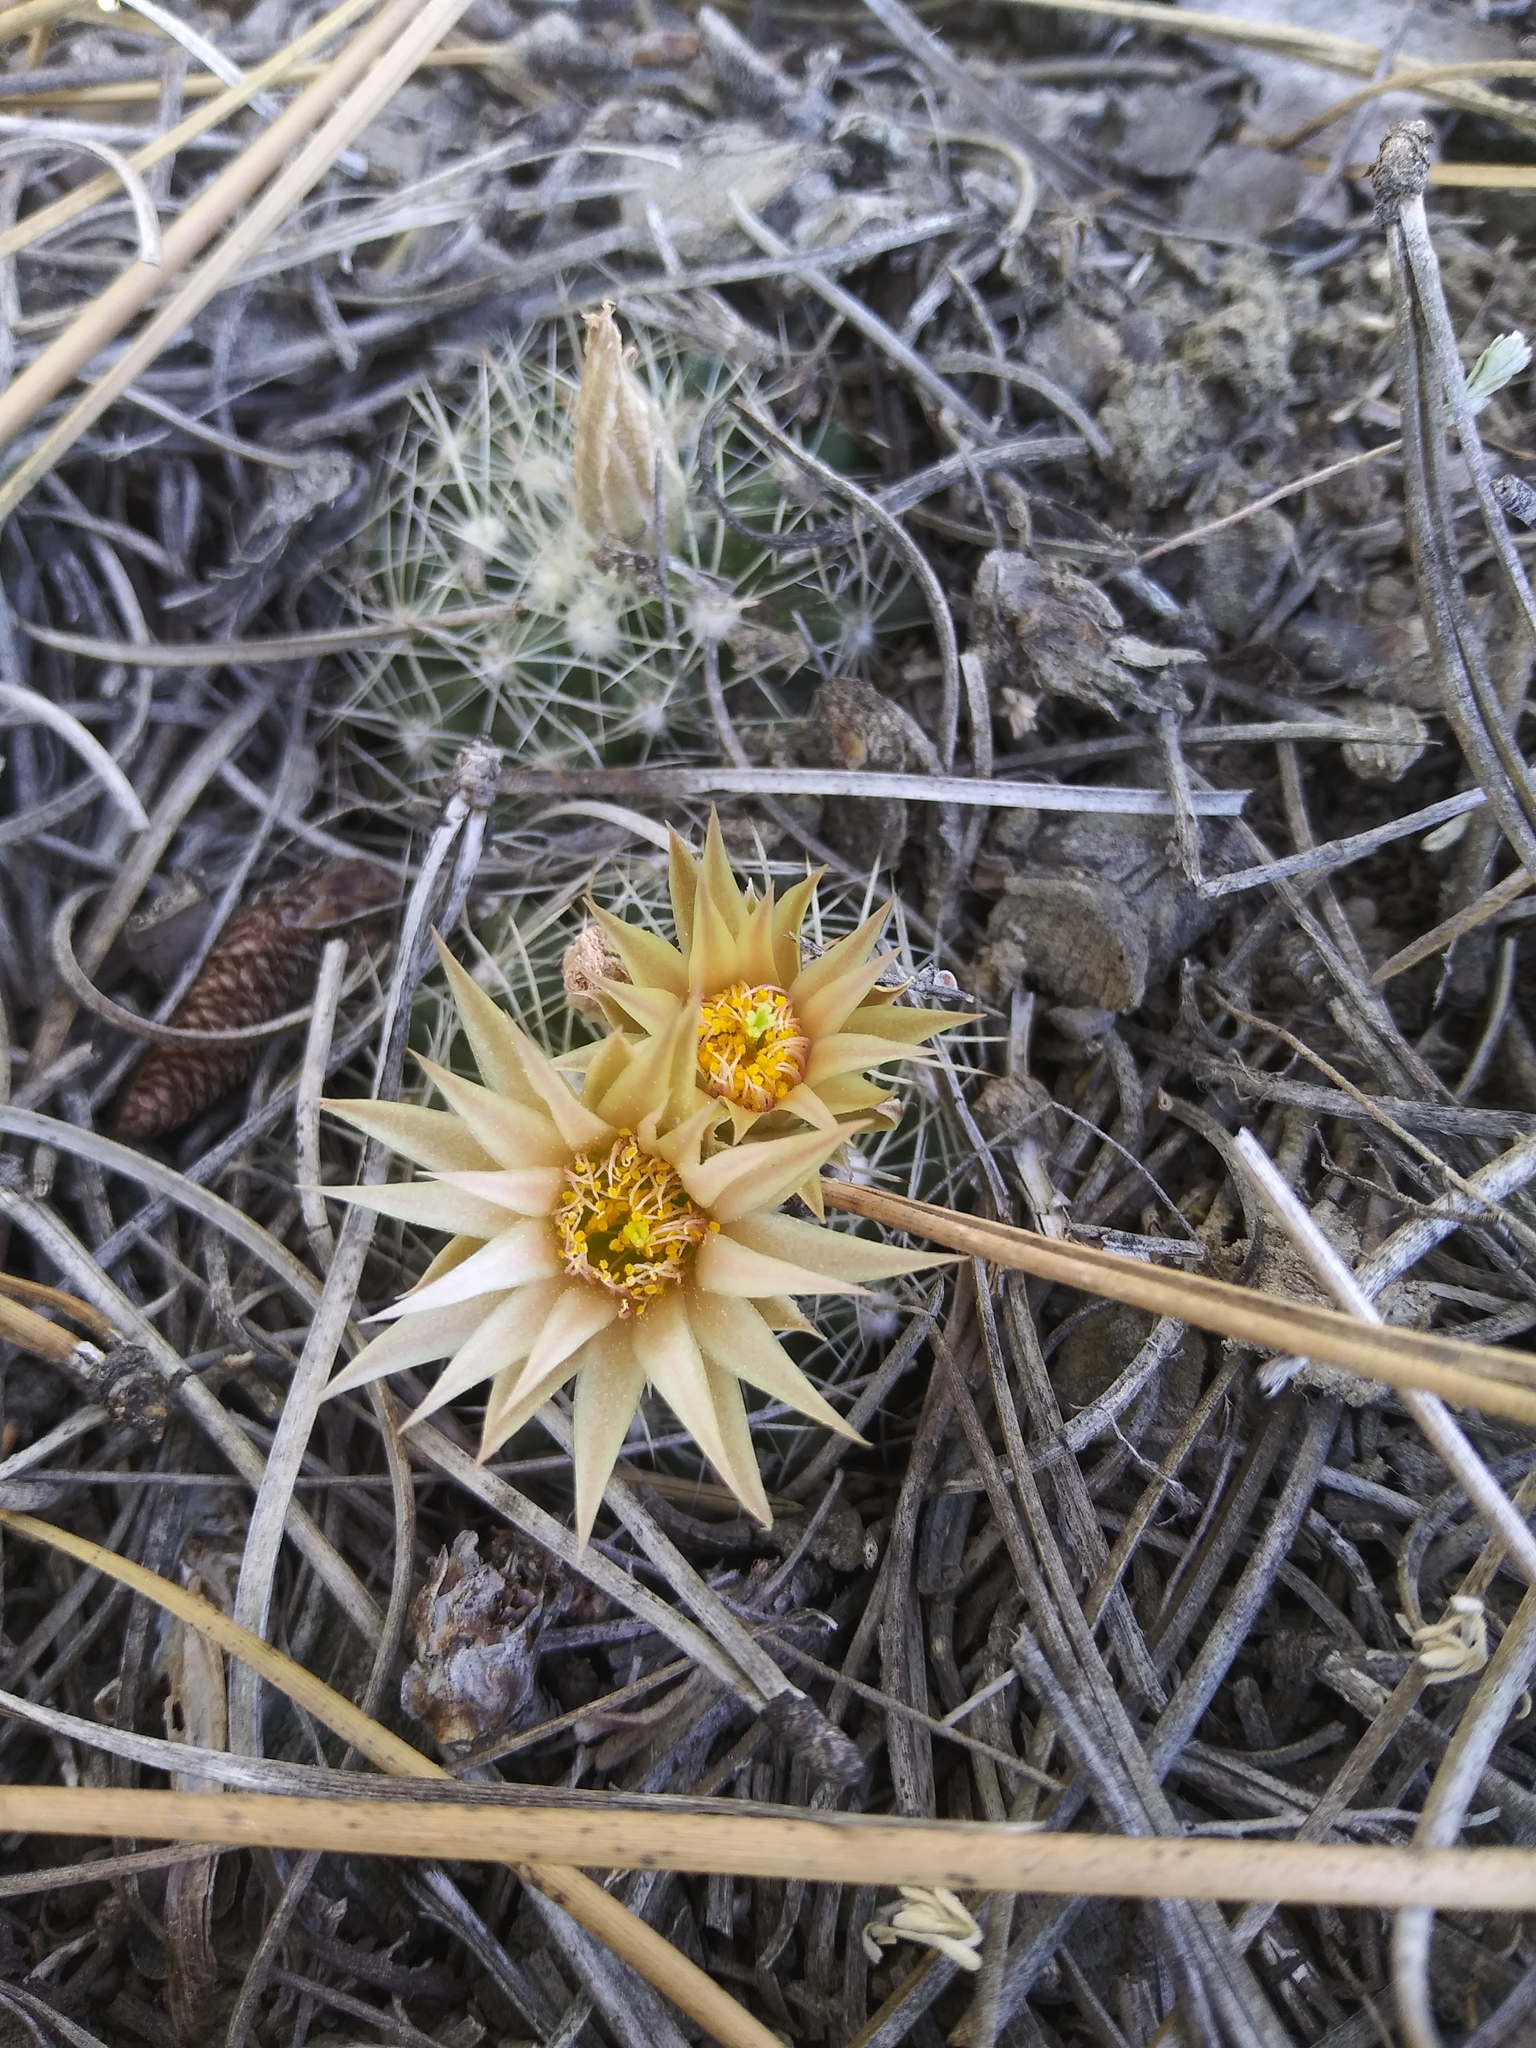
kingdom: Plantae
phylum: Tracheophyta
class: Magnoliopsida
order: Caryophyllales
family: Cactaceae
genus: Pelecyphora
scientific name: Pelecyphora missouriensis
